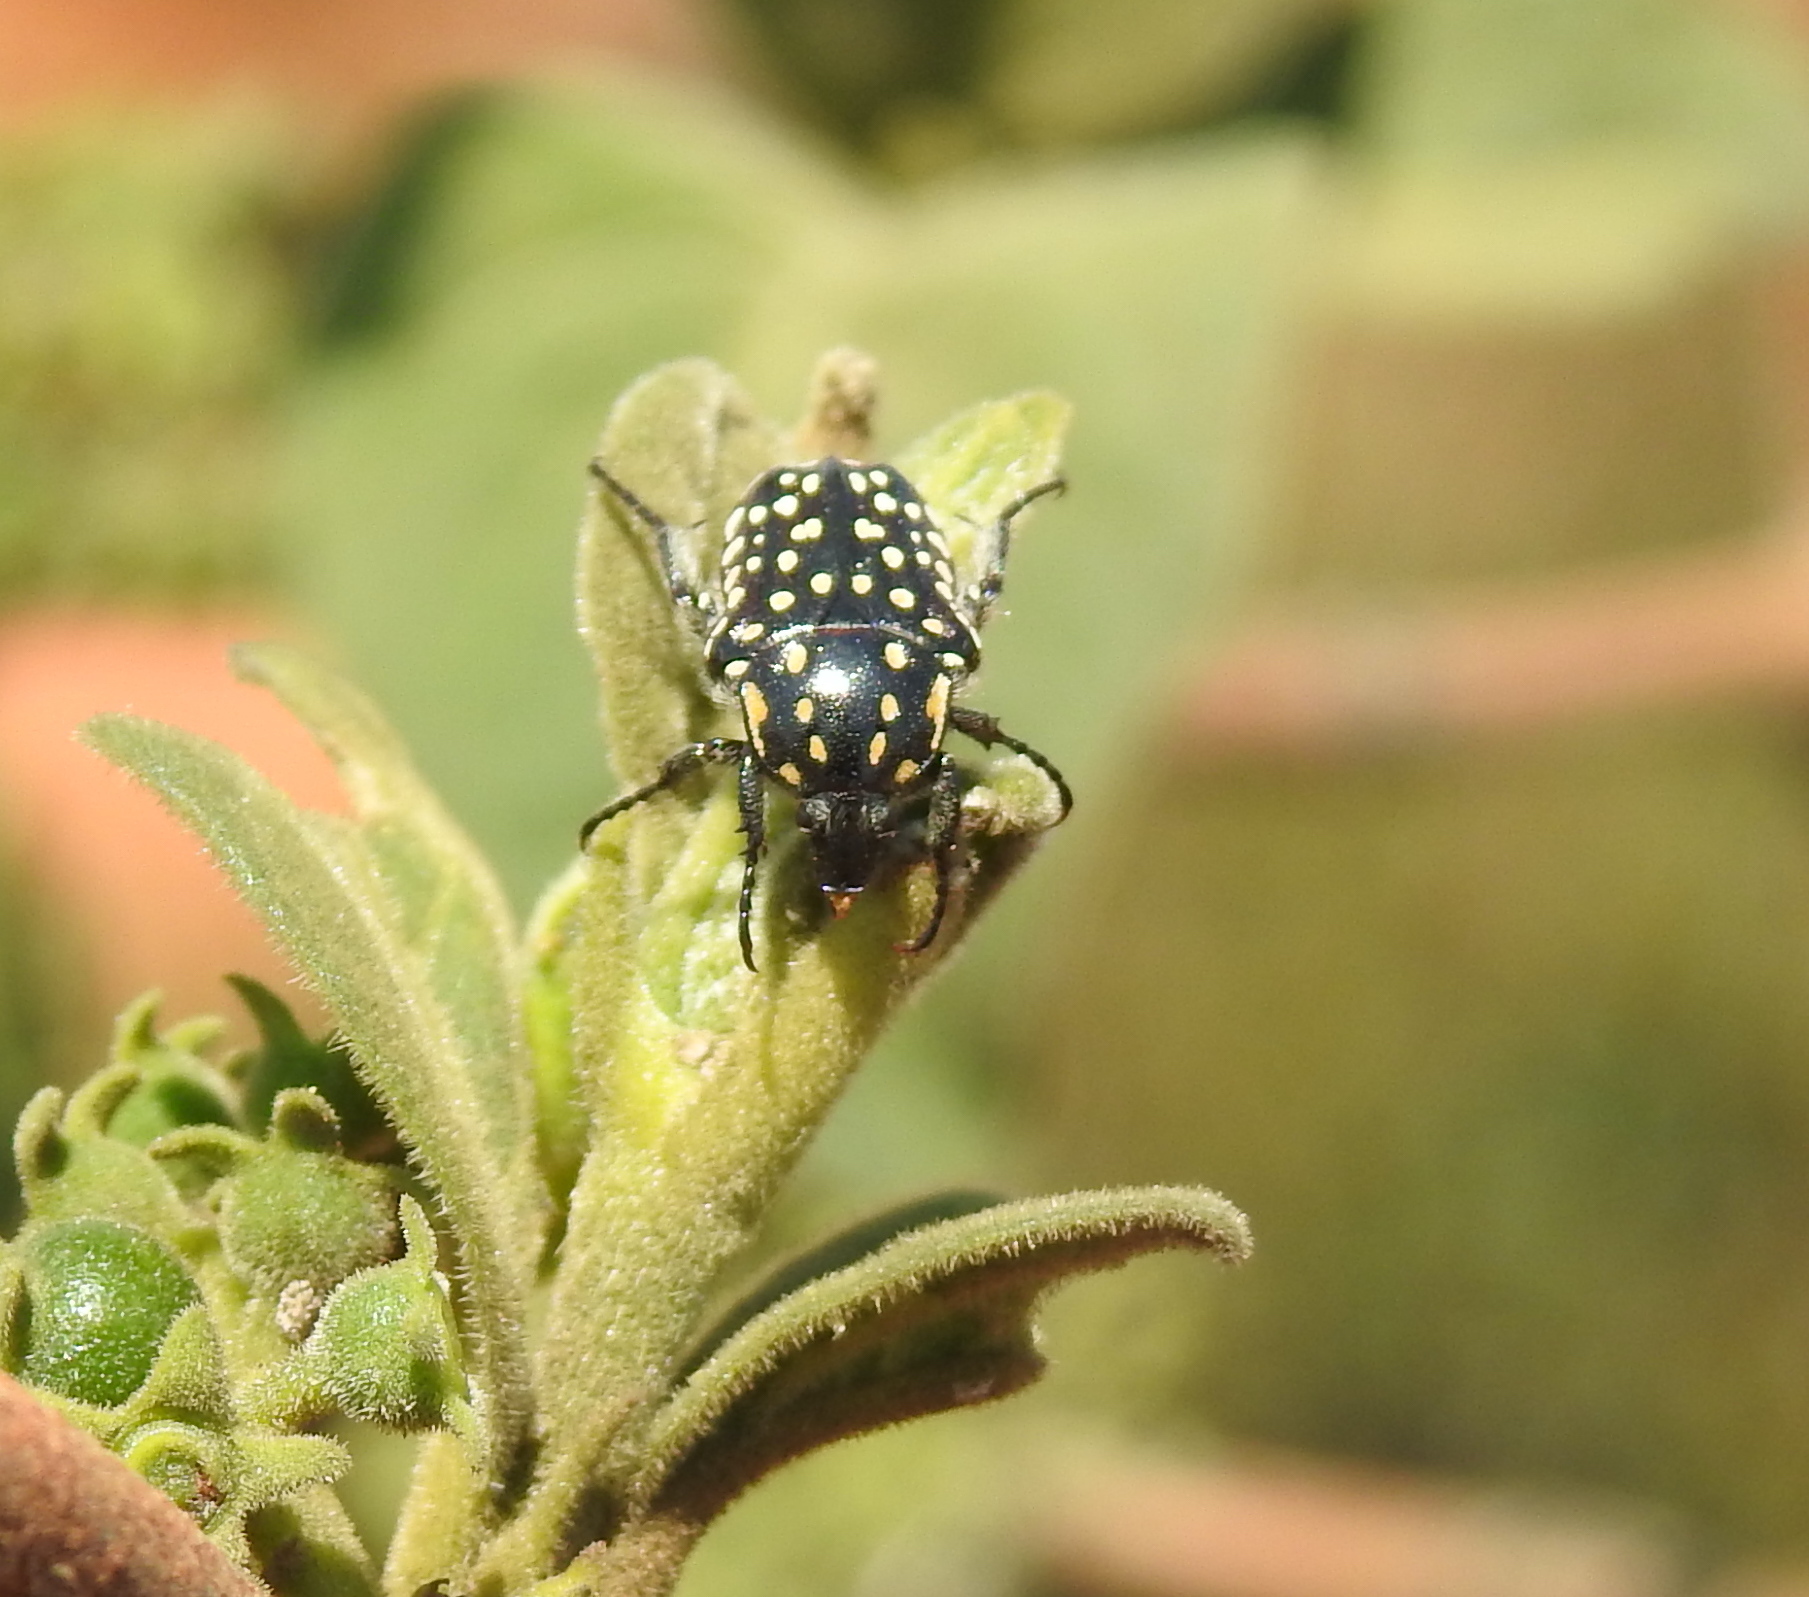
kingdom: Animalia
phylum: Arthropoda
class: Insecta
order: Coleoptera
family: Scarabaeidae
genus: Cyrtothyrea
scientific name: Cyrtothyrea testaceoguttata
